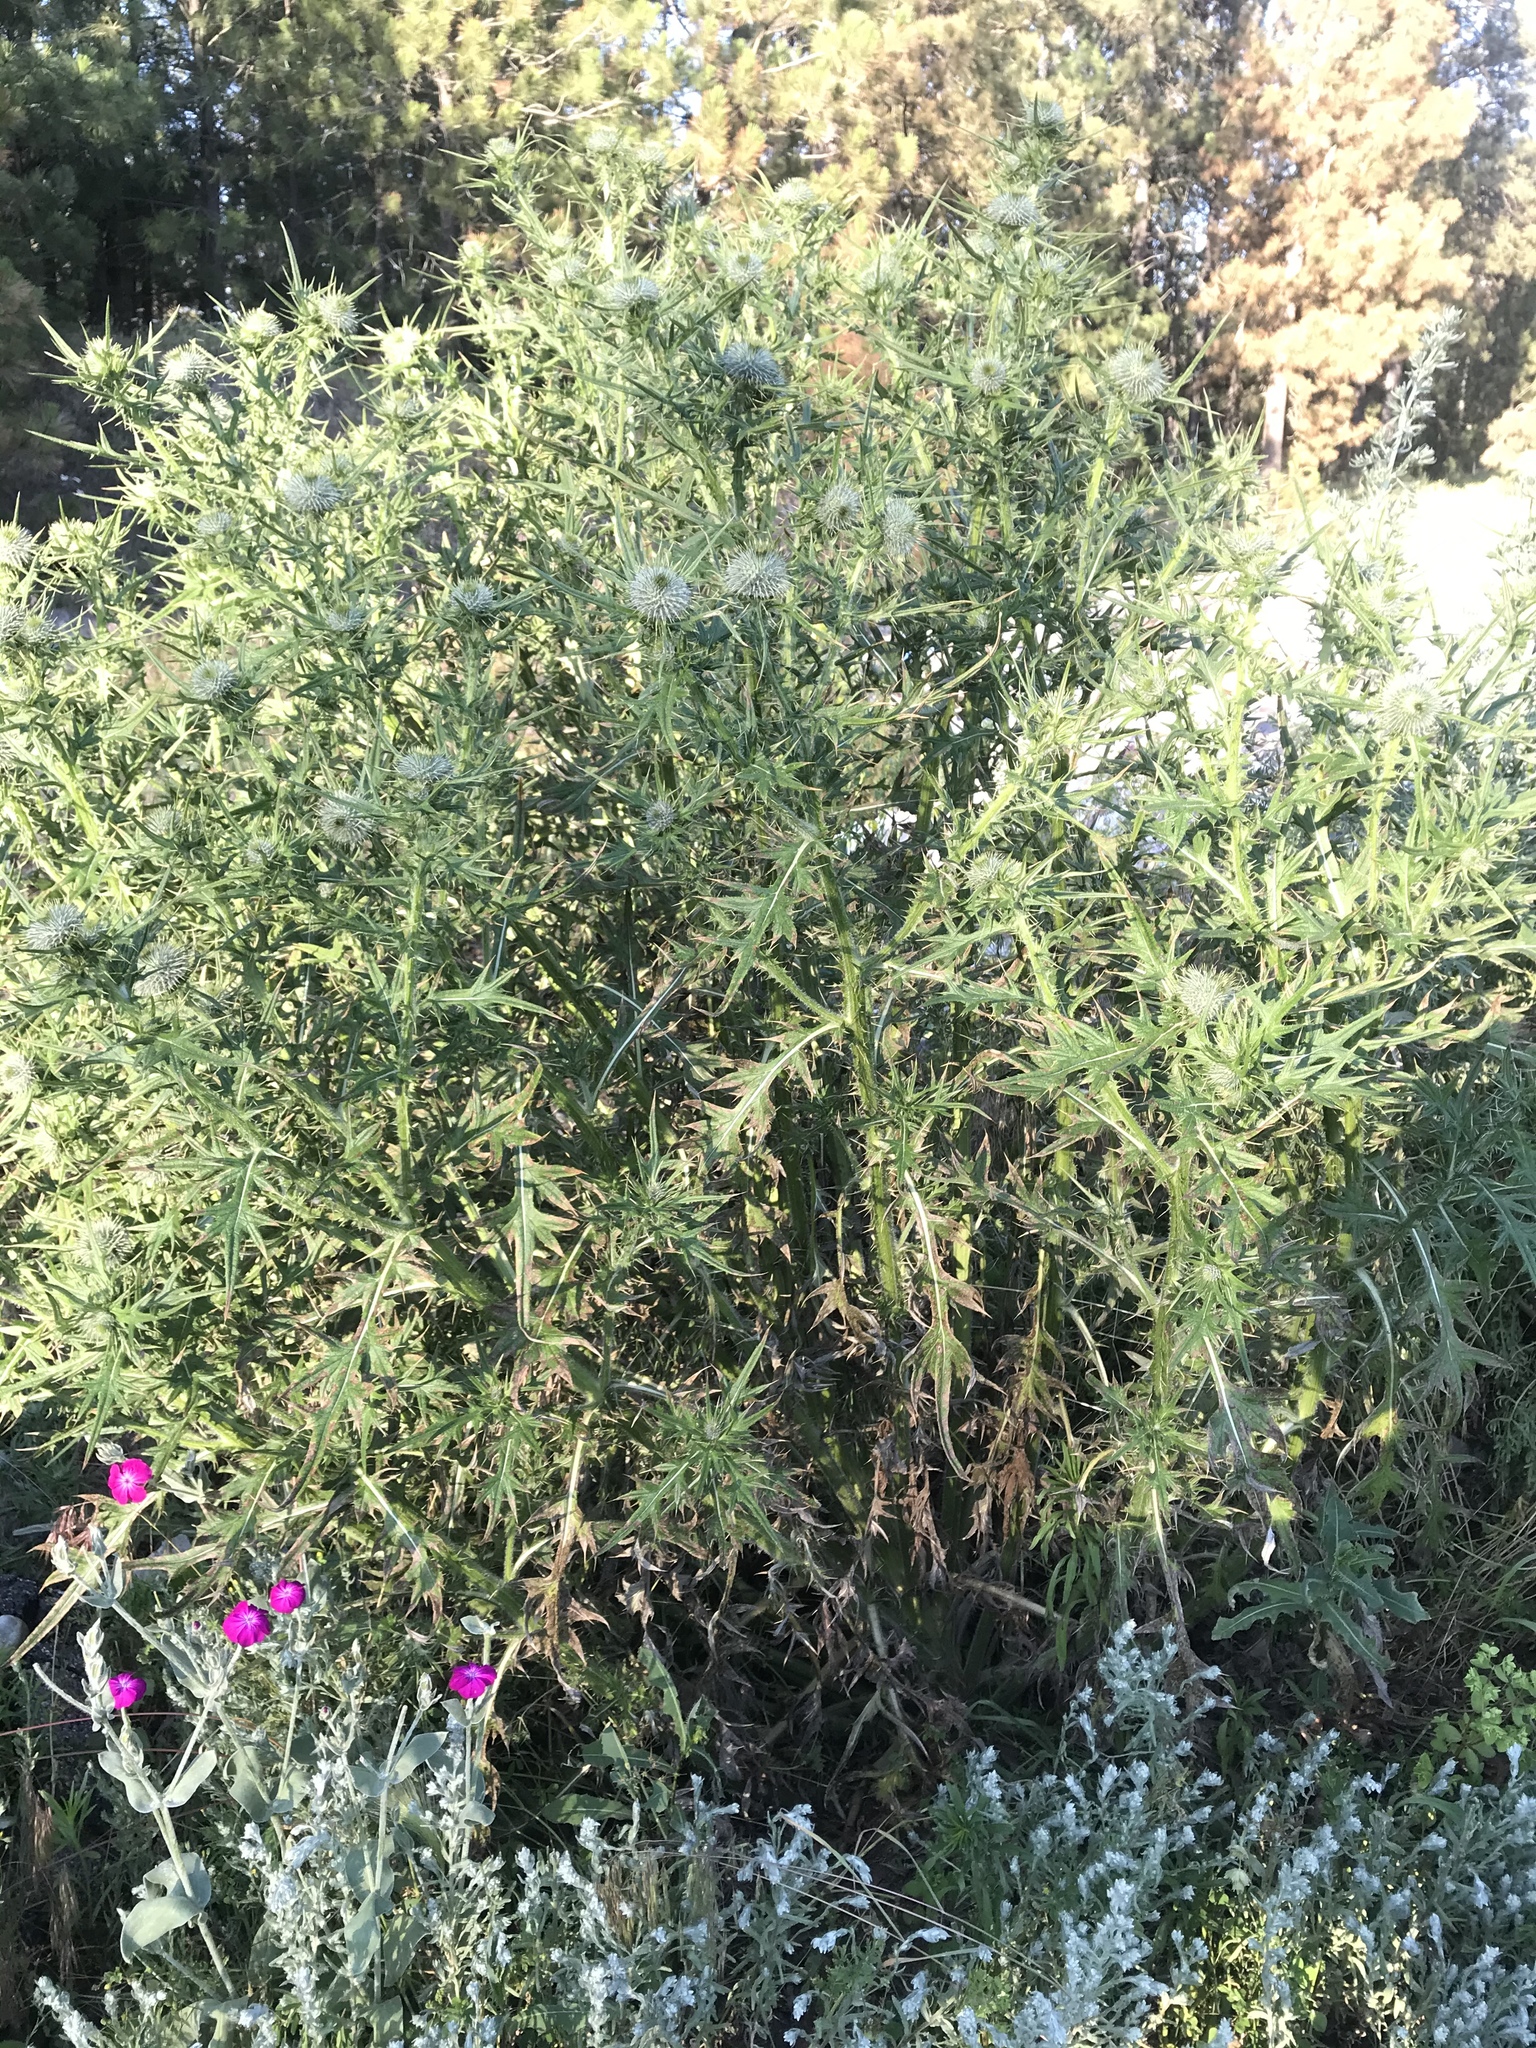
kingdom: Plantae
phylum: Tracheophyta
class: Magnoliopsida
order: Asterales
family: Asteraceae
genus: Cirsium
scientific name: Cirsium vulgare
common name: Bull thistle
